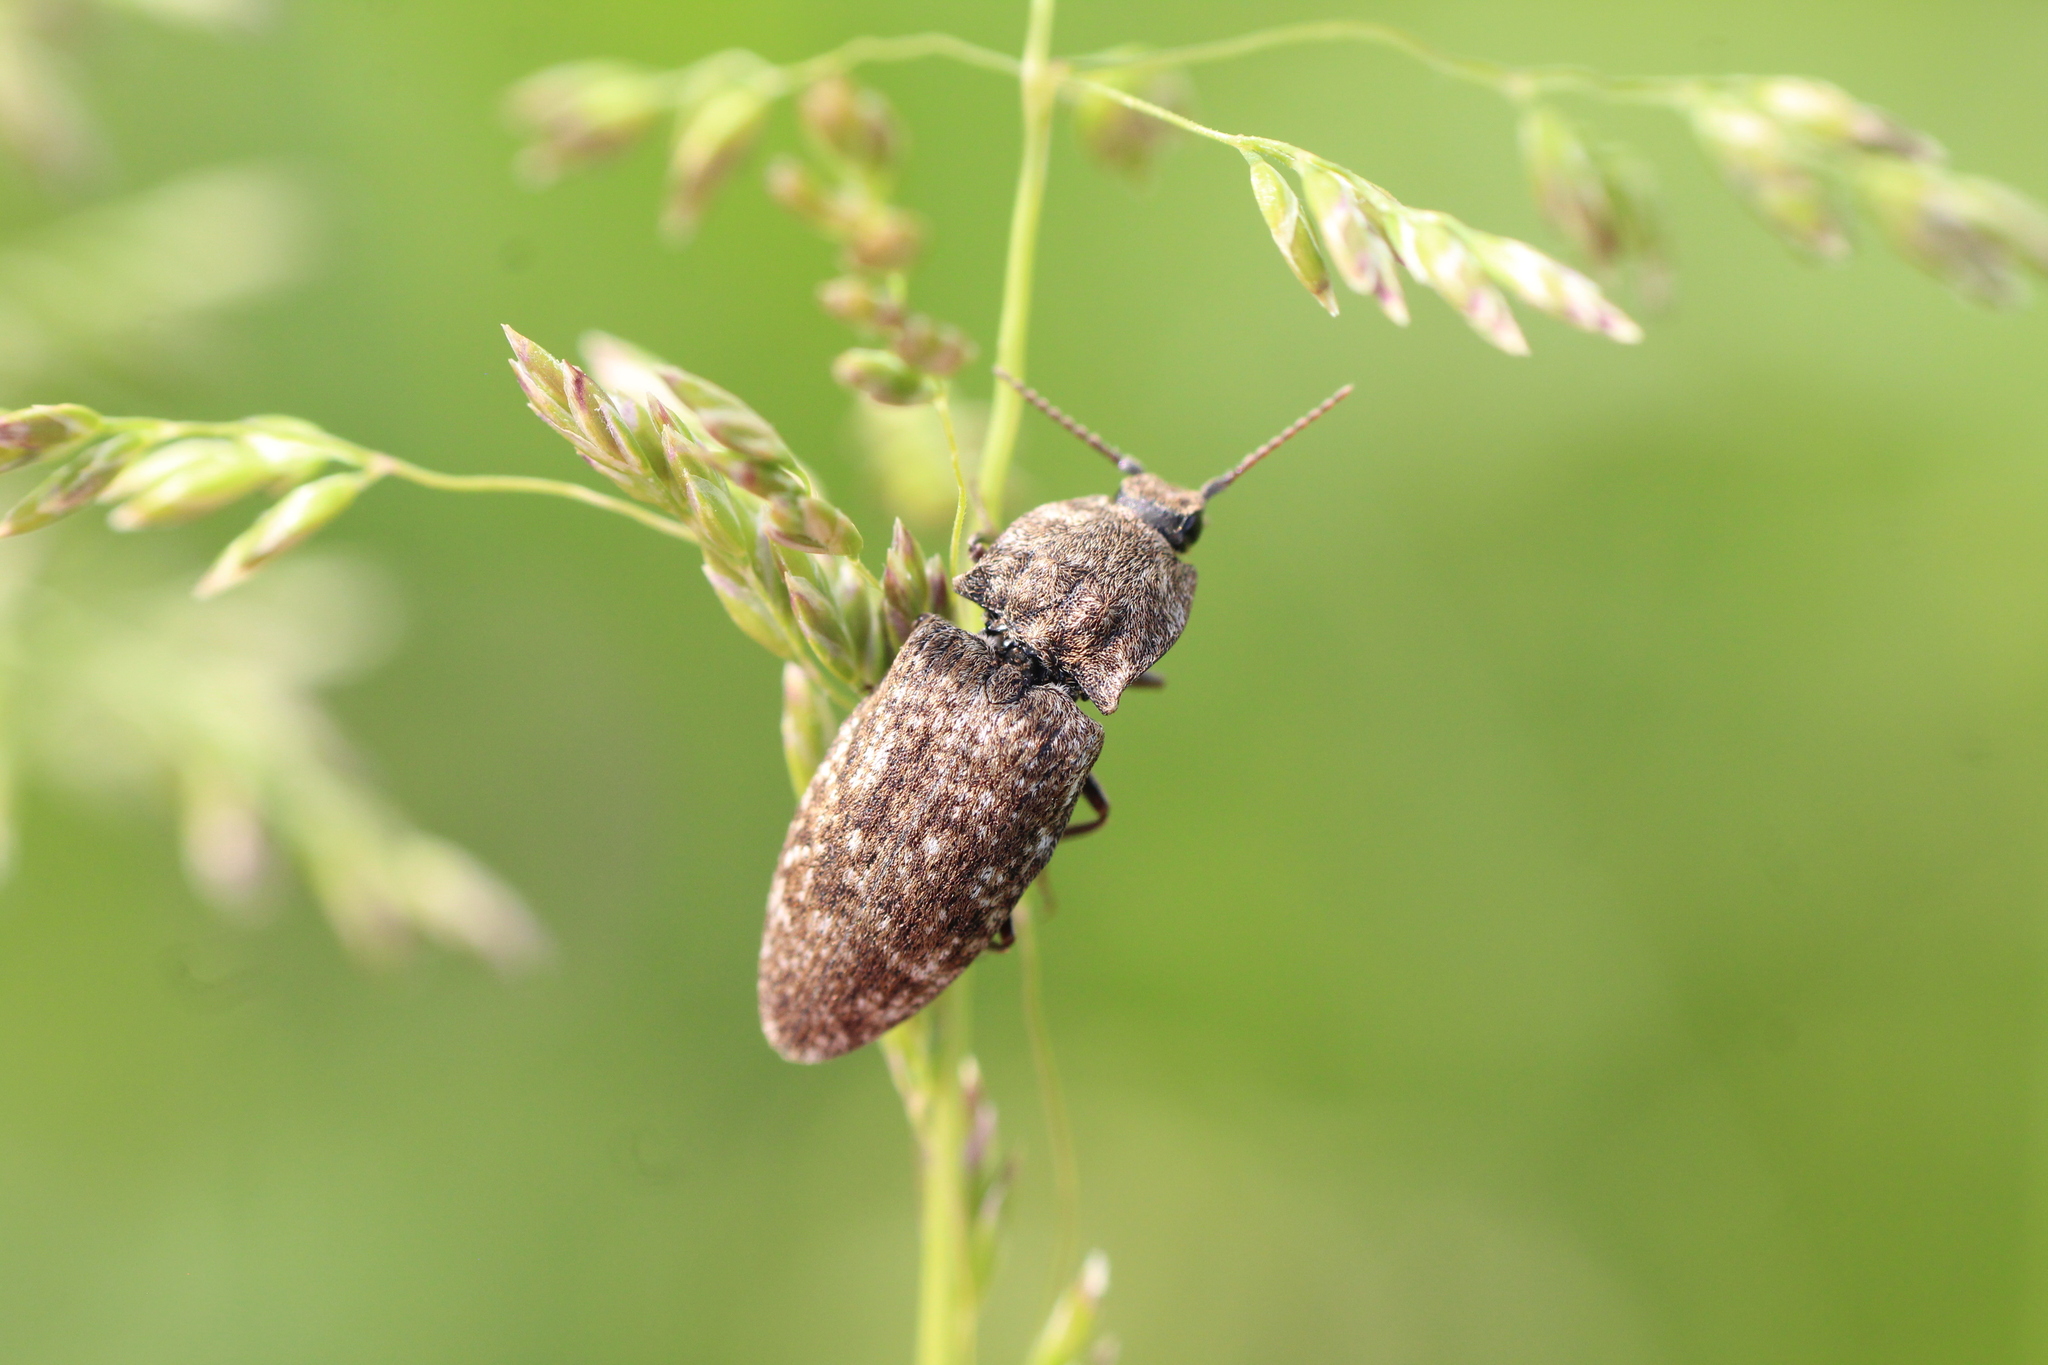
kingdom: Animalia
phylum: Arthropoda
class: Insecta
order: Coleoptera
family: Elateridae
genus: Agrypnus
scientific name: Agrypnus murinus
